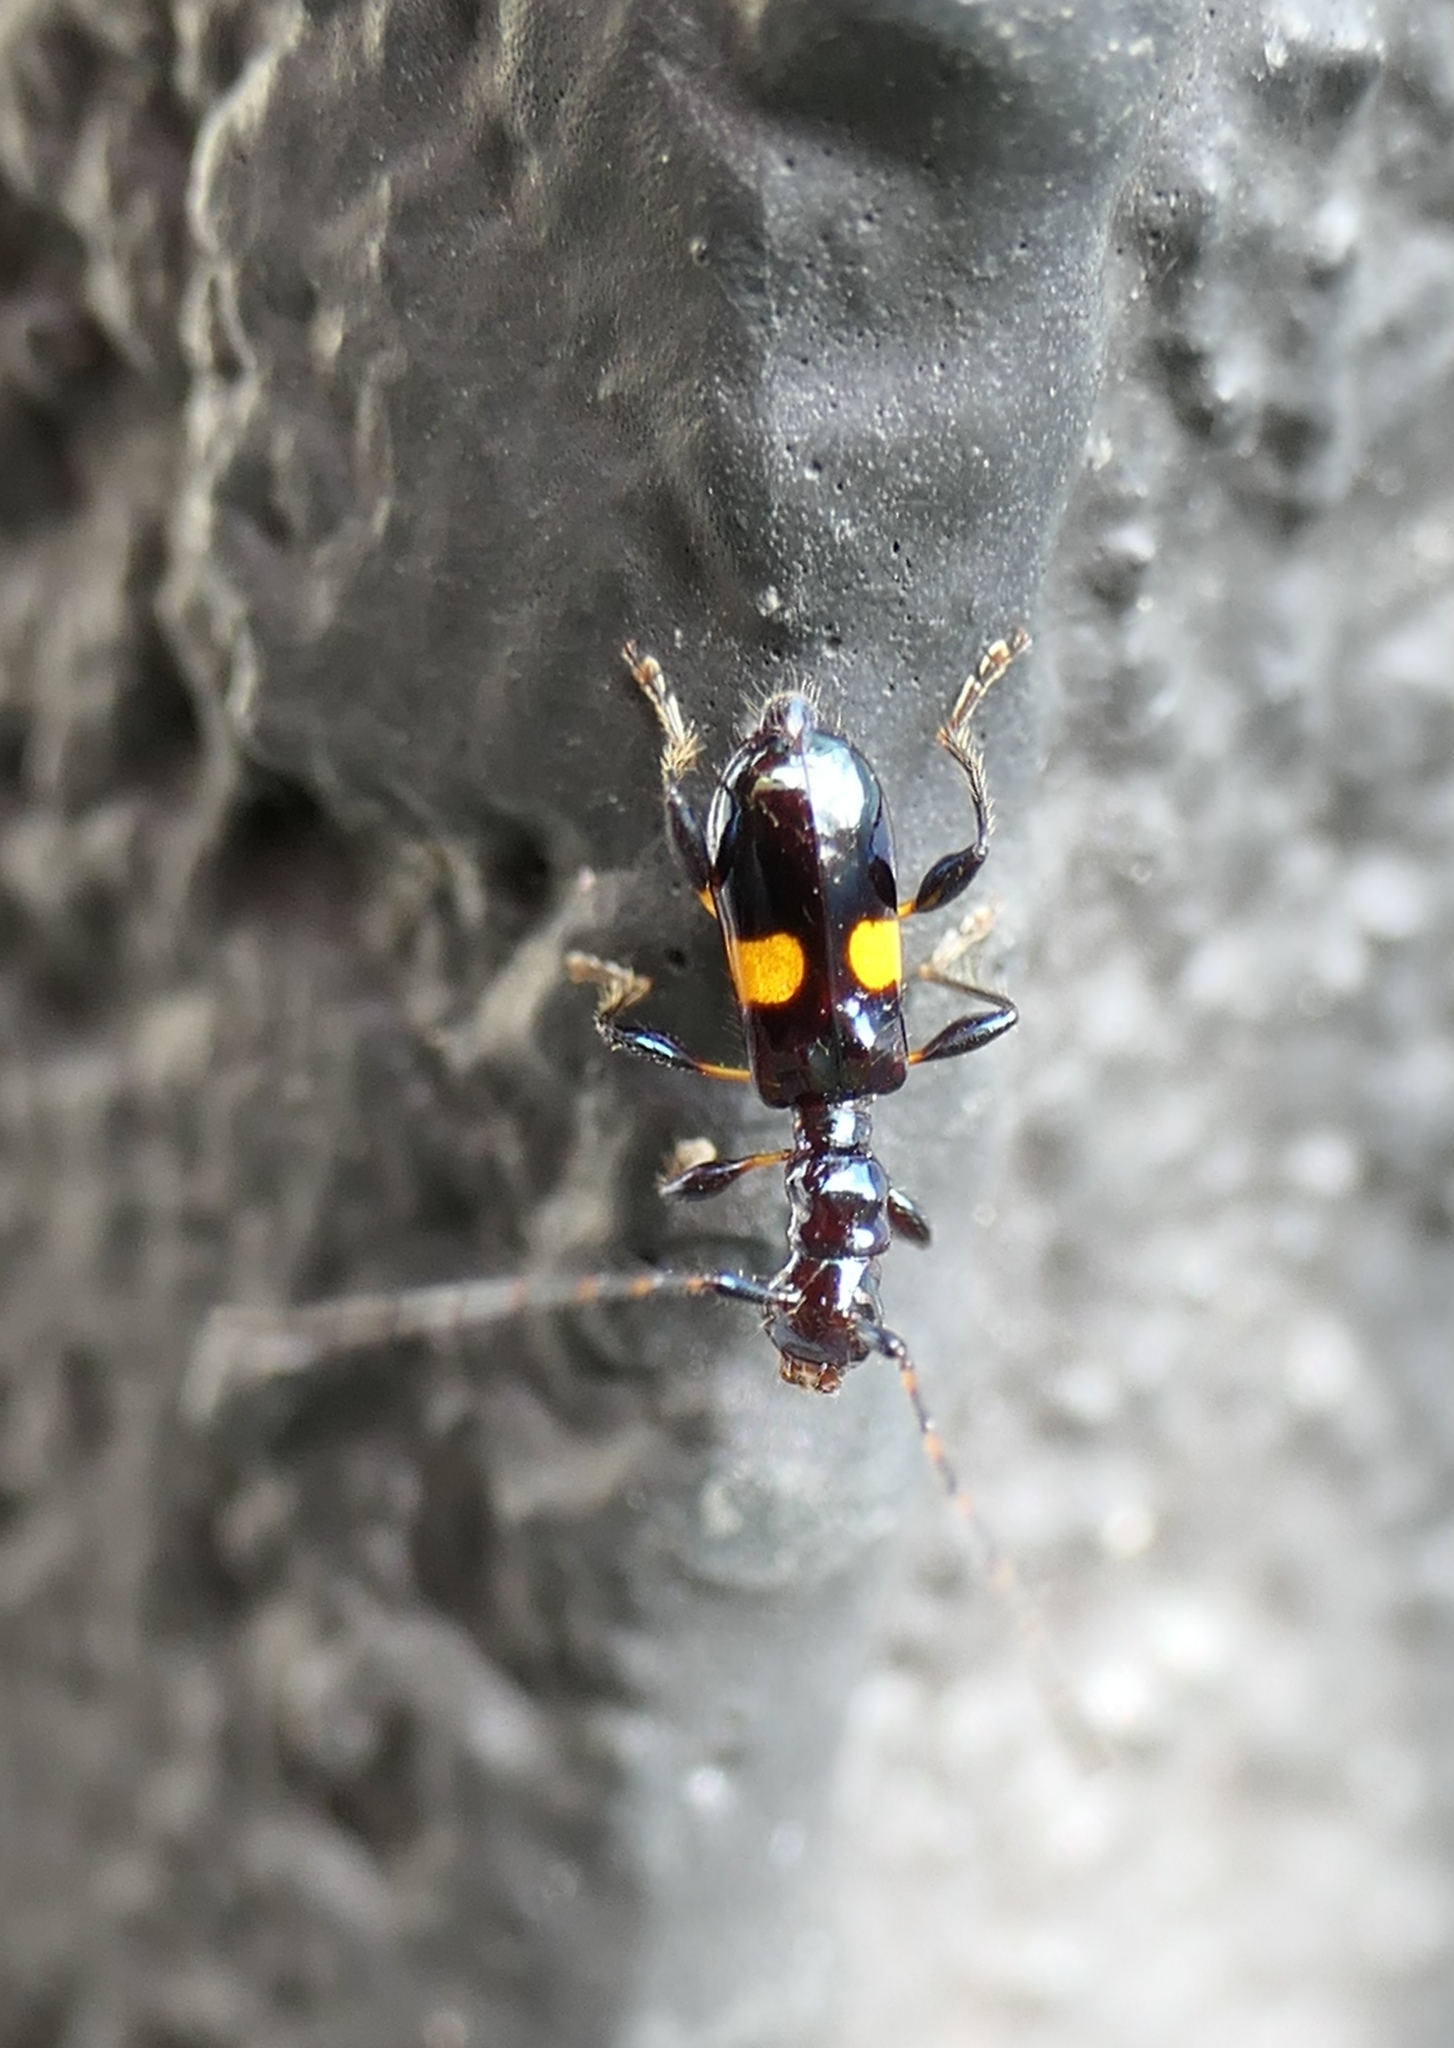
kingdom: Animalia
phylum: Arthropoda
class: Insecta
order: Coleoptera
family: Cerambycidae
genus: Zorion
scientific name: Zorion guttigerum
